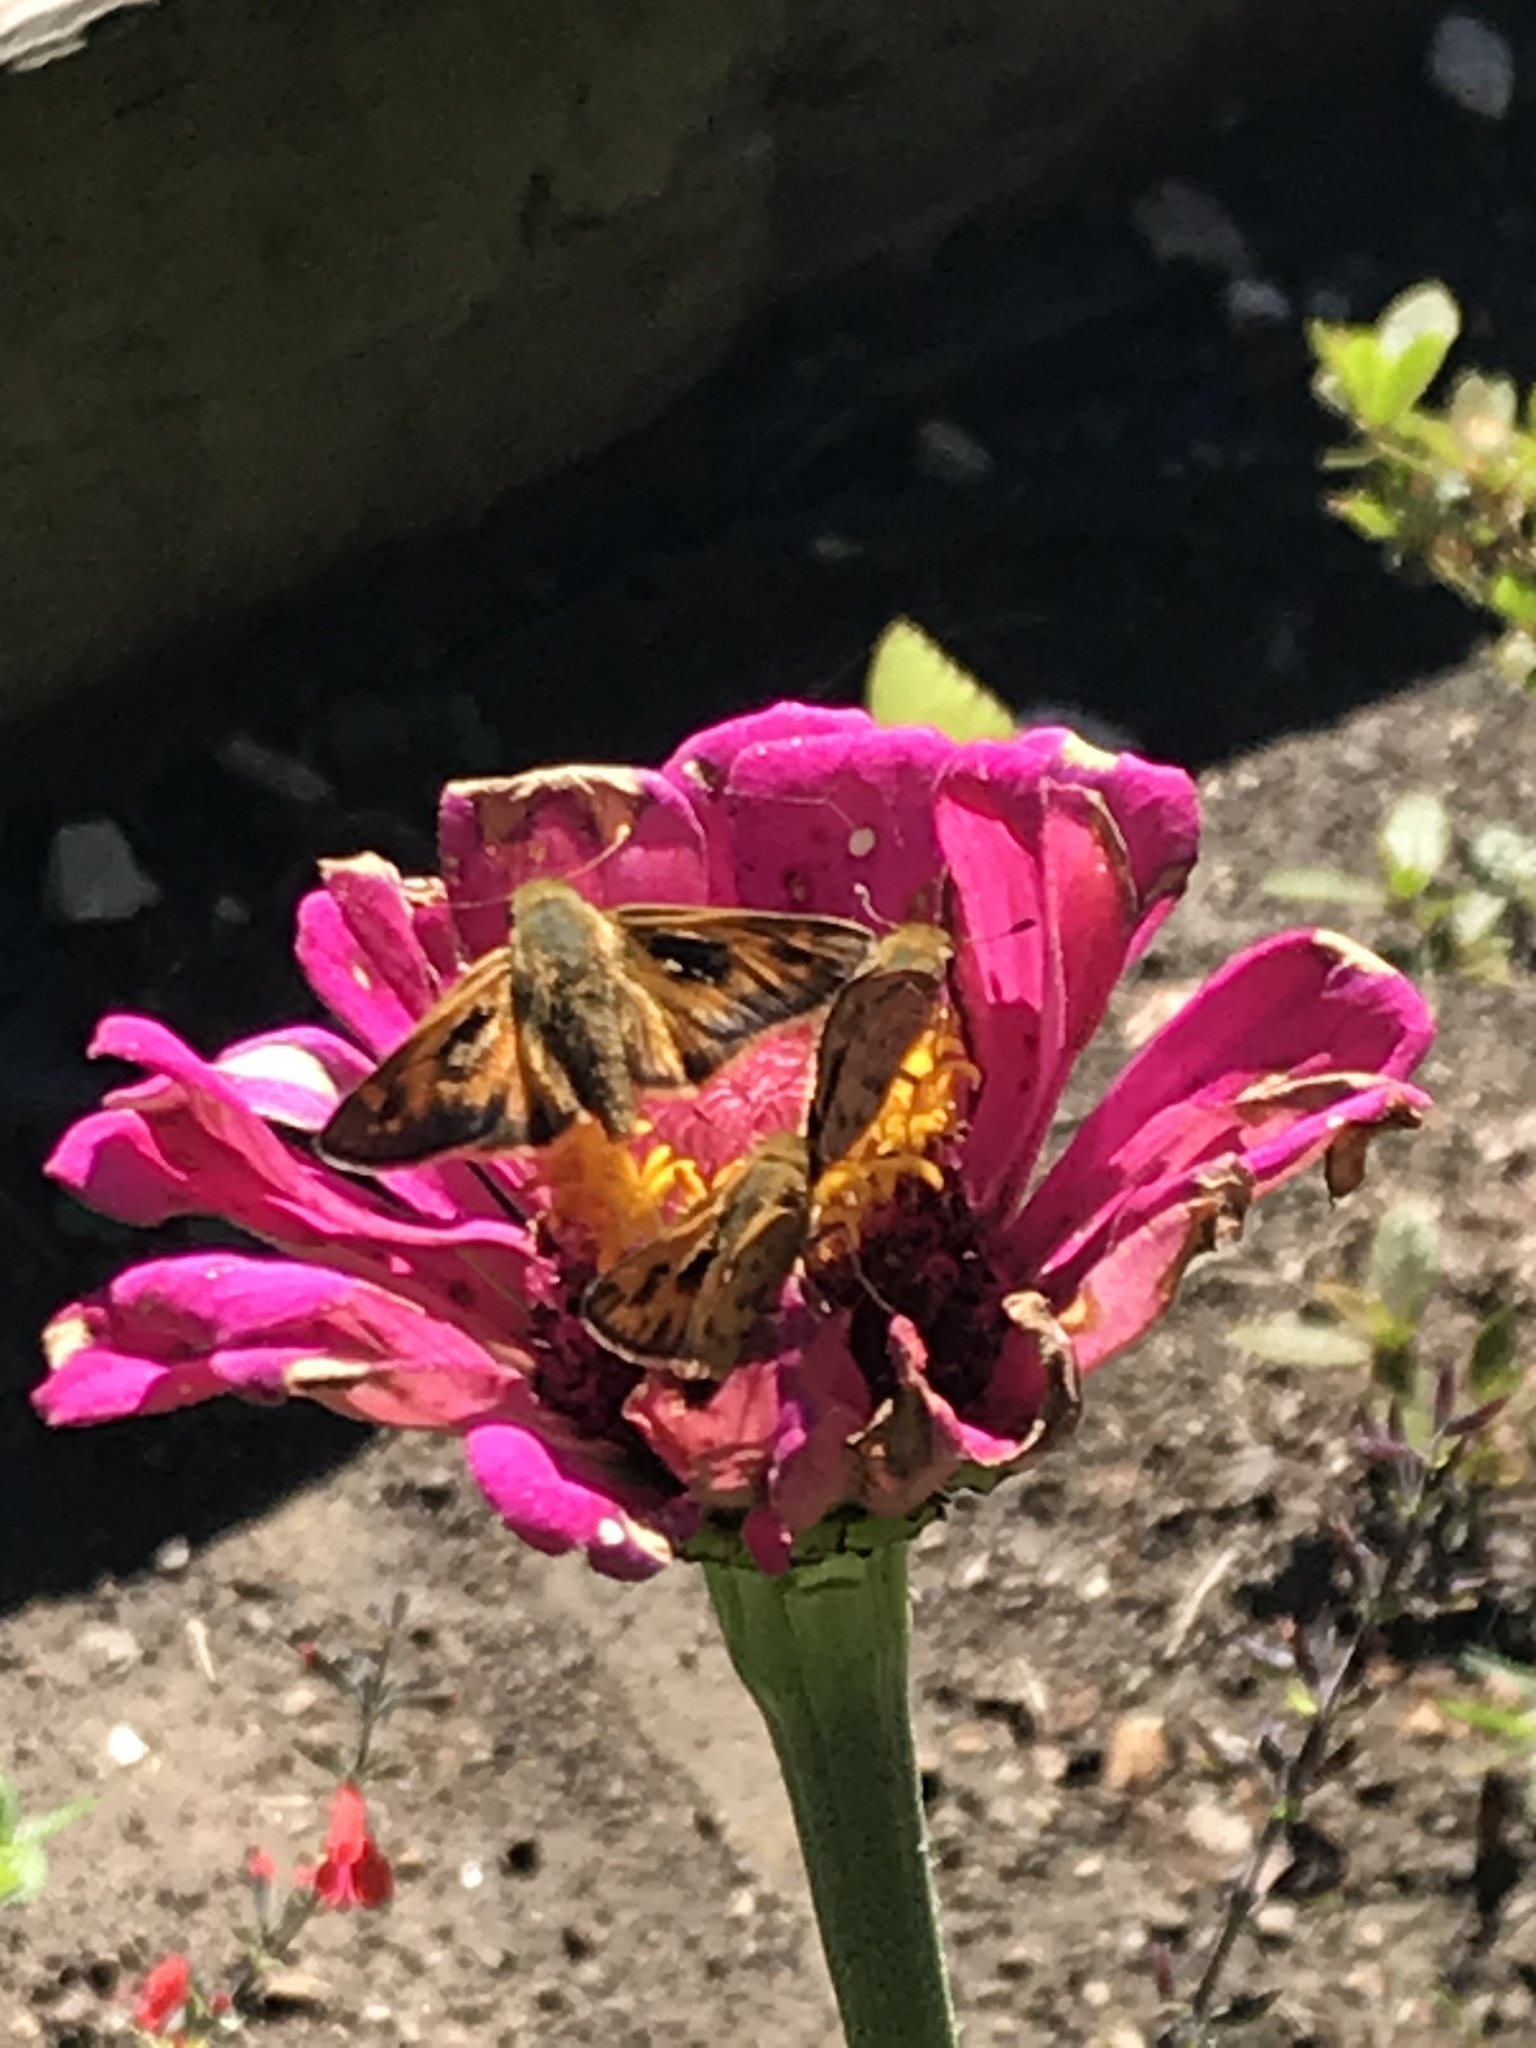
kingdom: Animalia
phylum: Arthropoda
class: Insecta
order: Lepidoptera
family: Hesperiidae
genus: Hylephila
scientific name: Hylephila phyleus
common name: Fiery skipper
